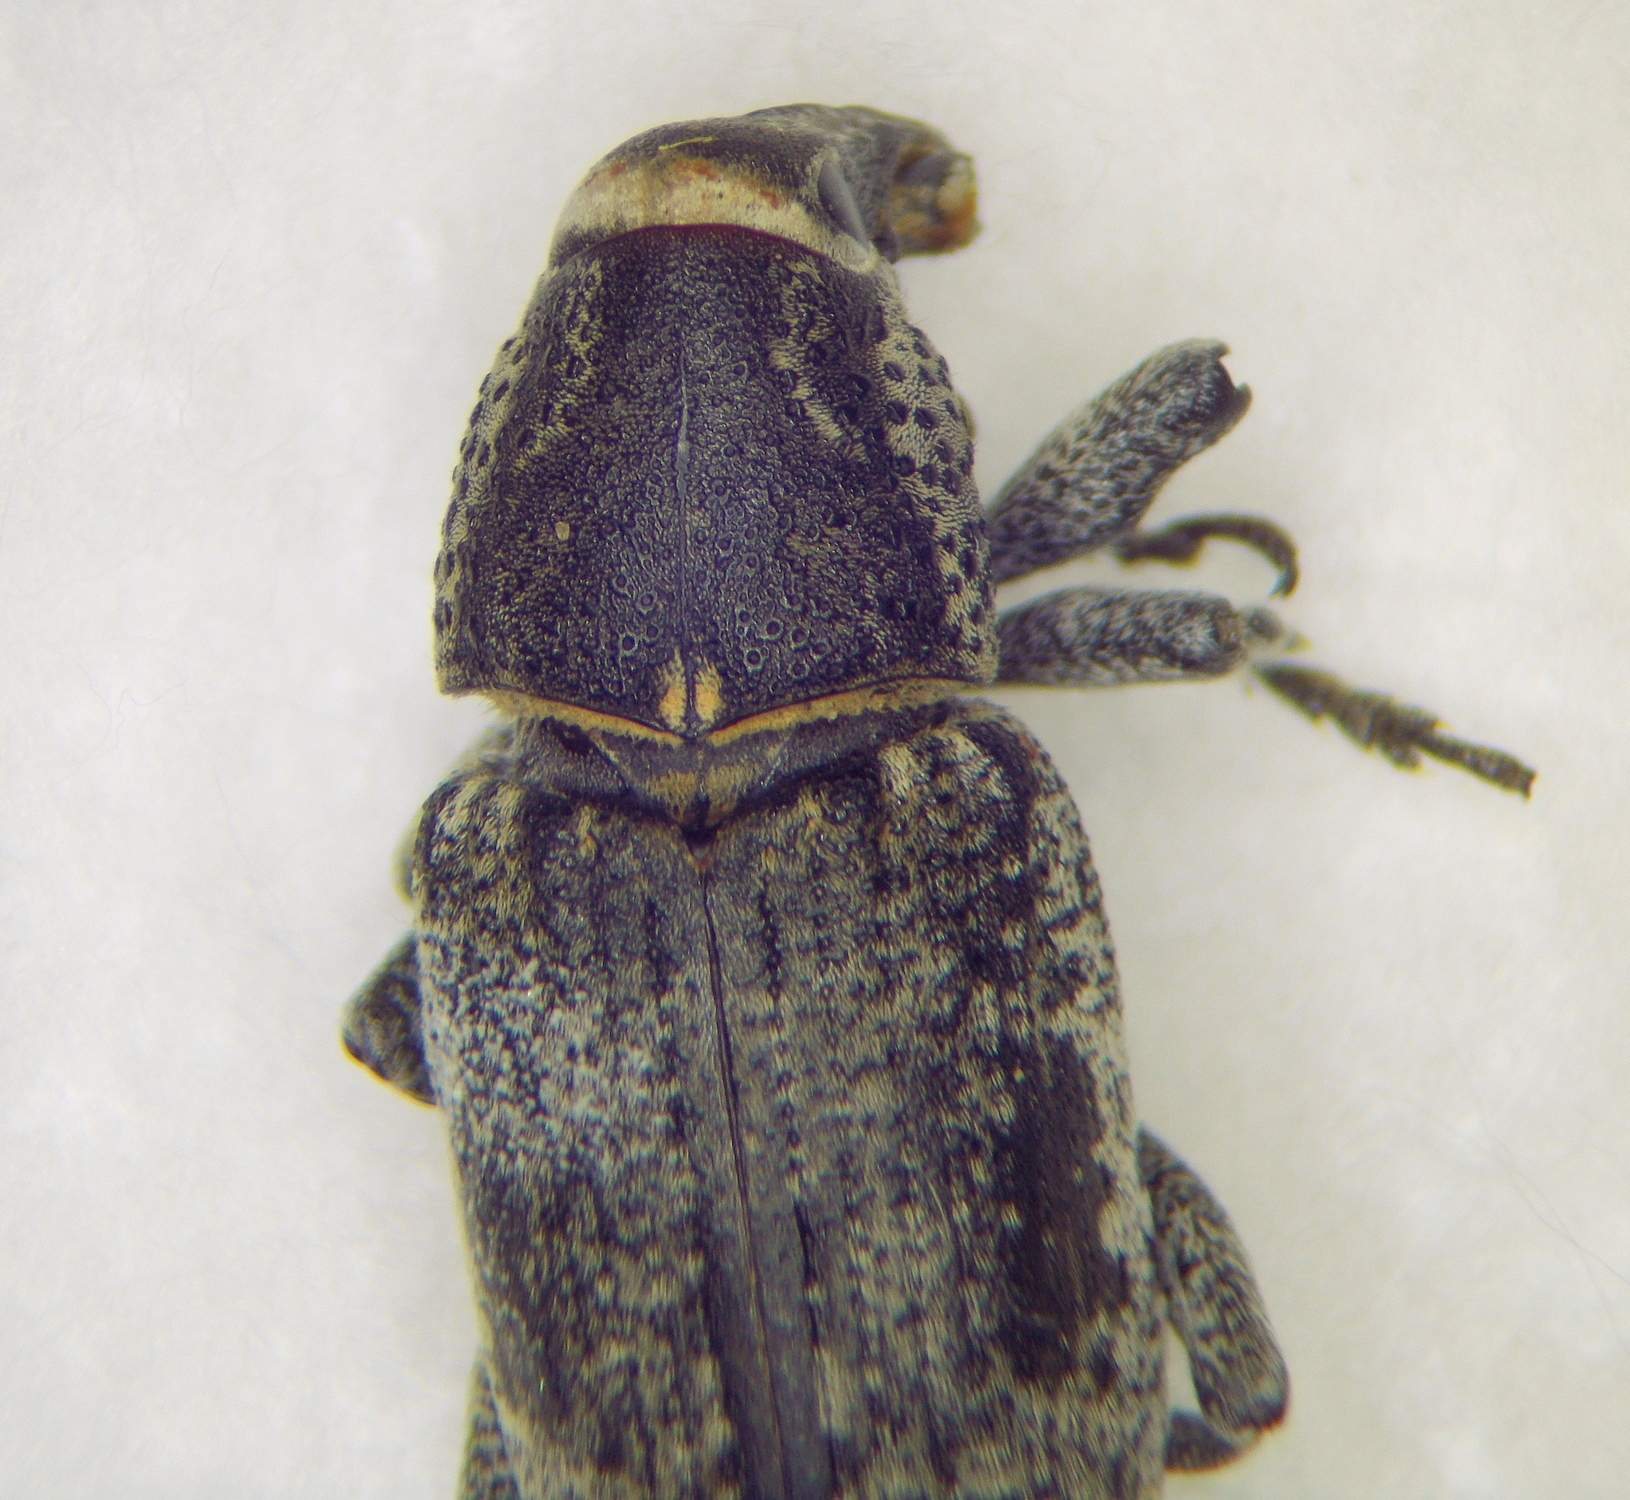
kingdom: Animalia
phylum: Arthropoda
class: Insecta
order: Coleoptera
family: Curculionidae
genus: Maximus
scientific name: Maximus strabus
